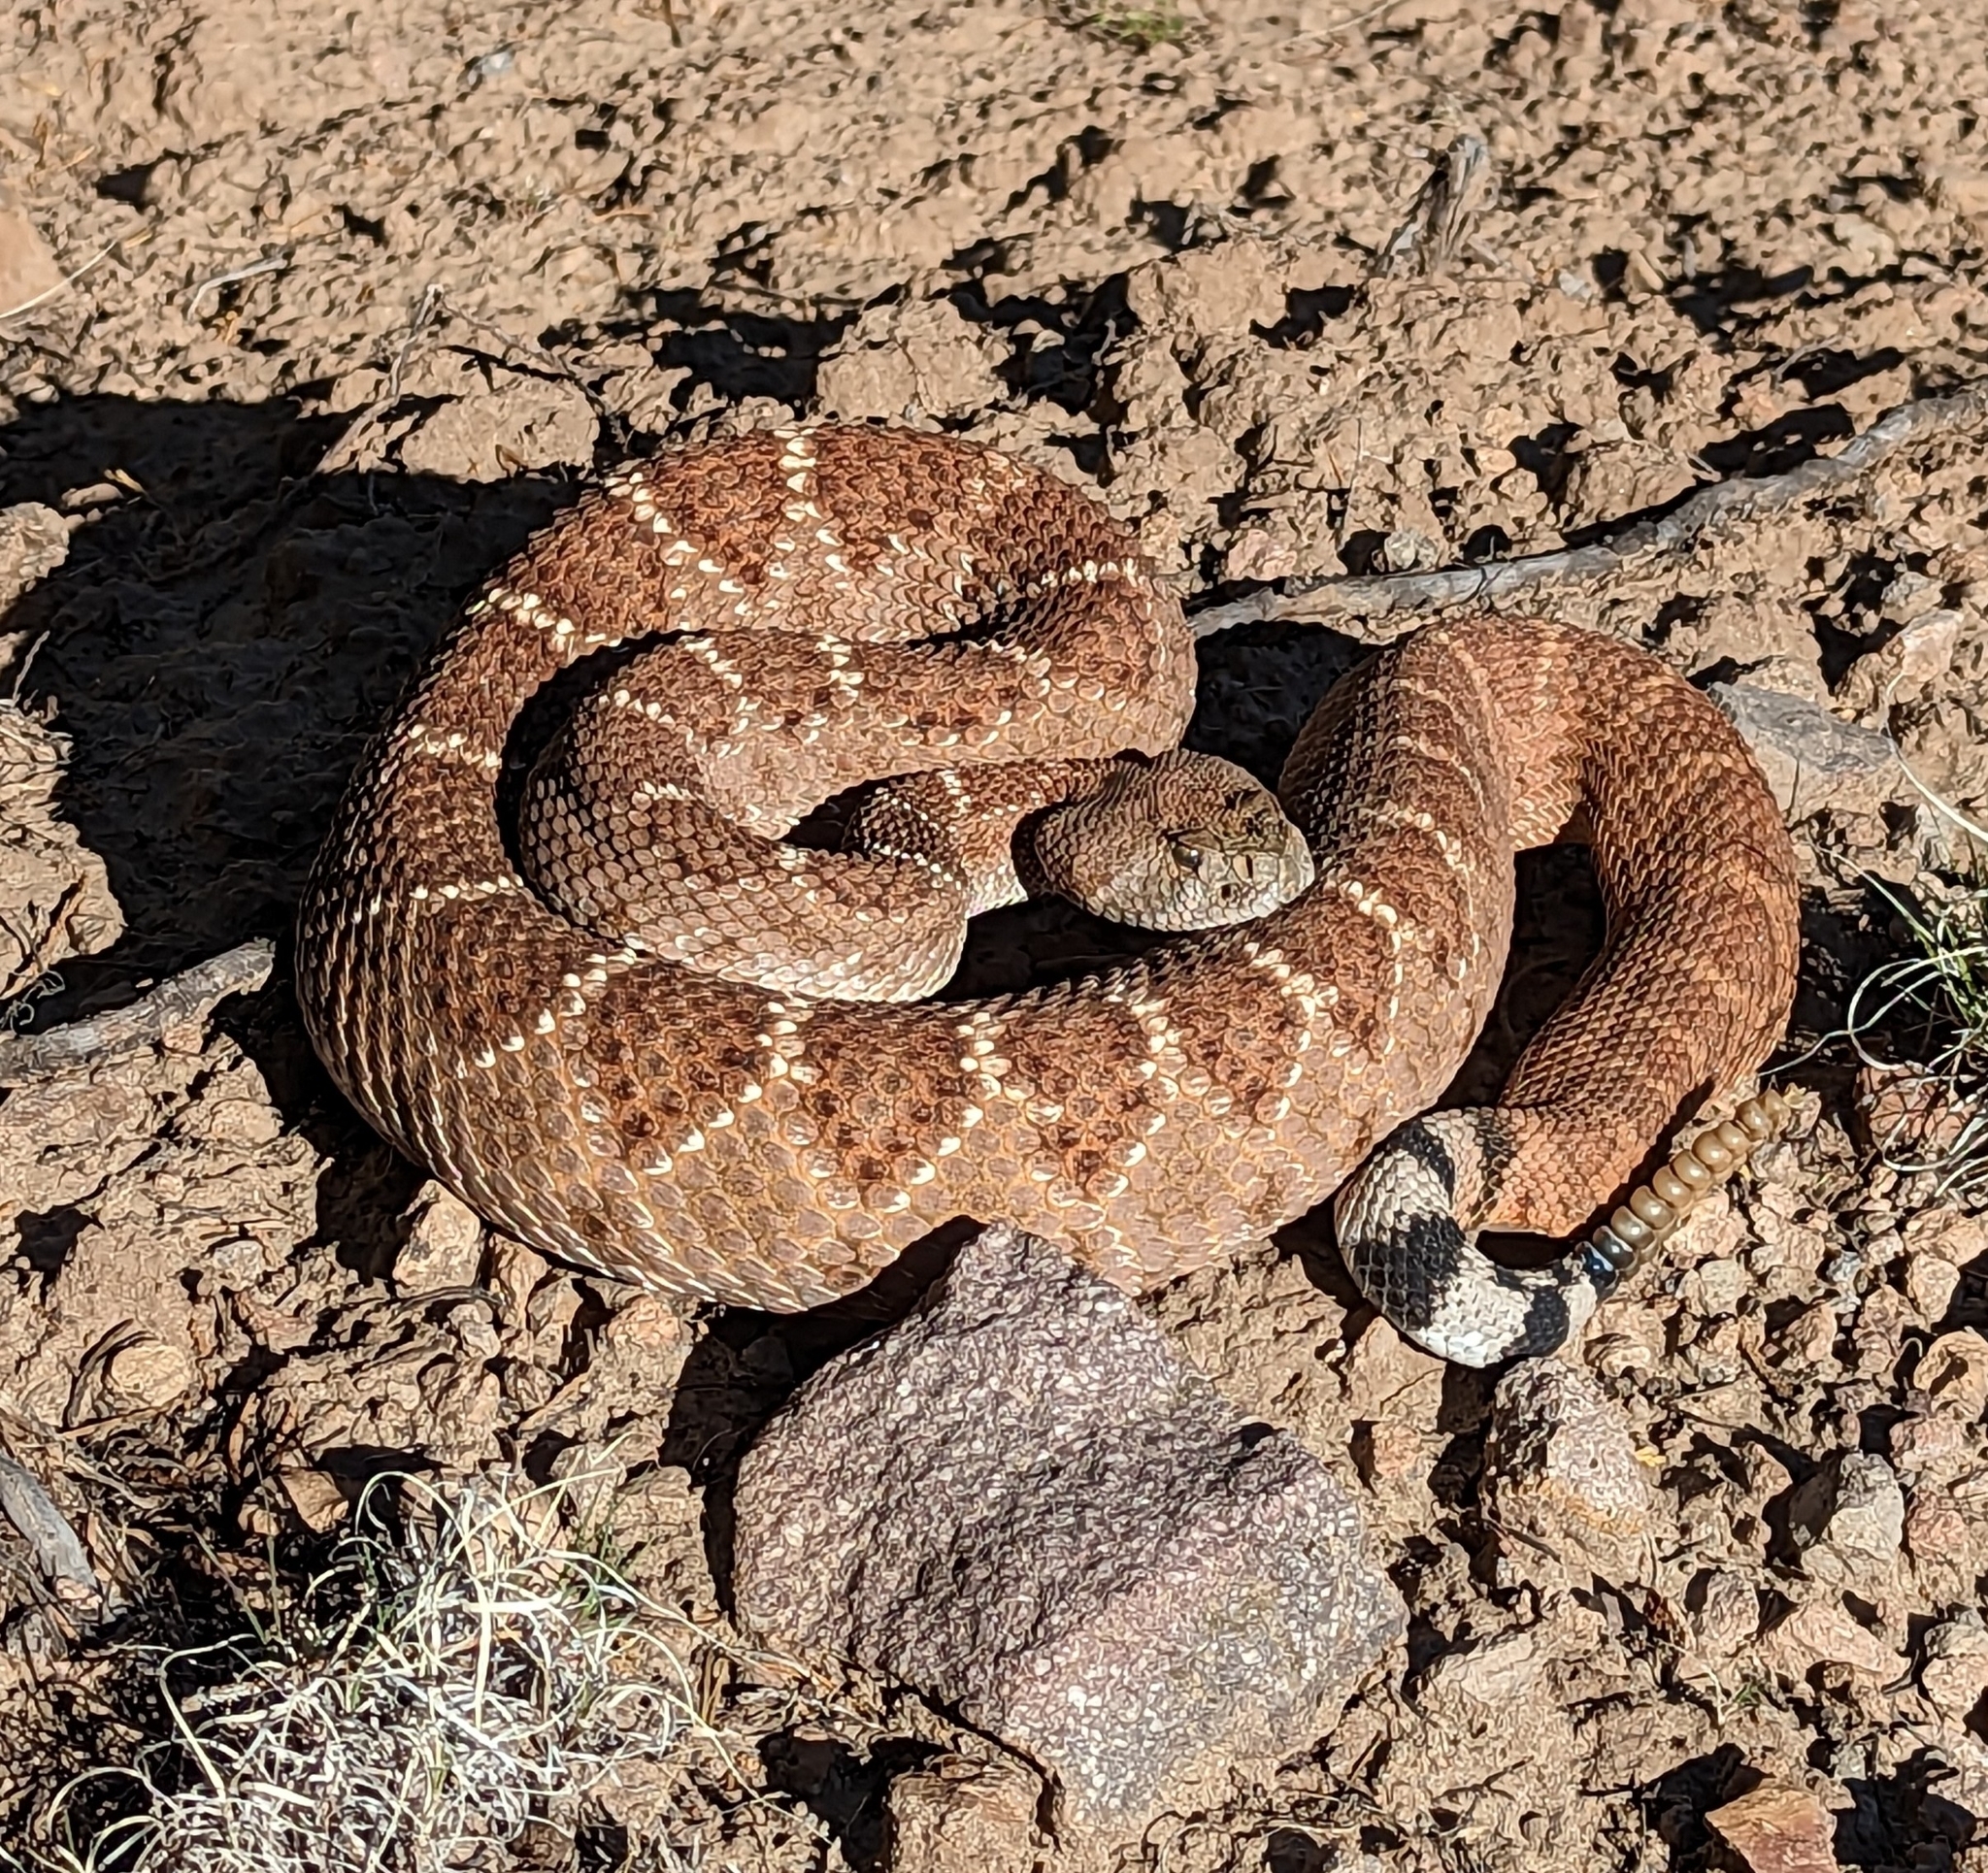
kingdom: Animalia
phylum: Chordata
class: Squamata
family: Viperidae
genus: Crotalus
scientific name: Crotalus atrox
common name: Western diamond-backed rattlesnake
